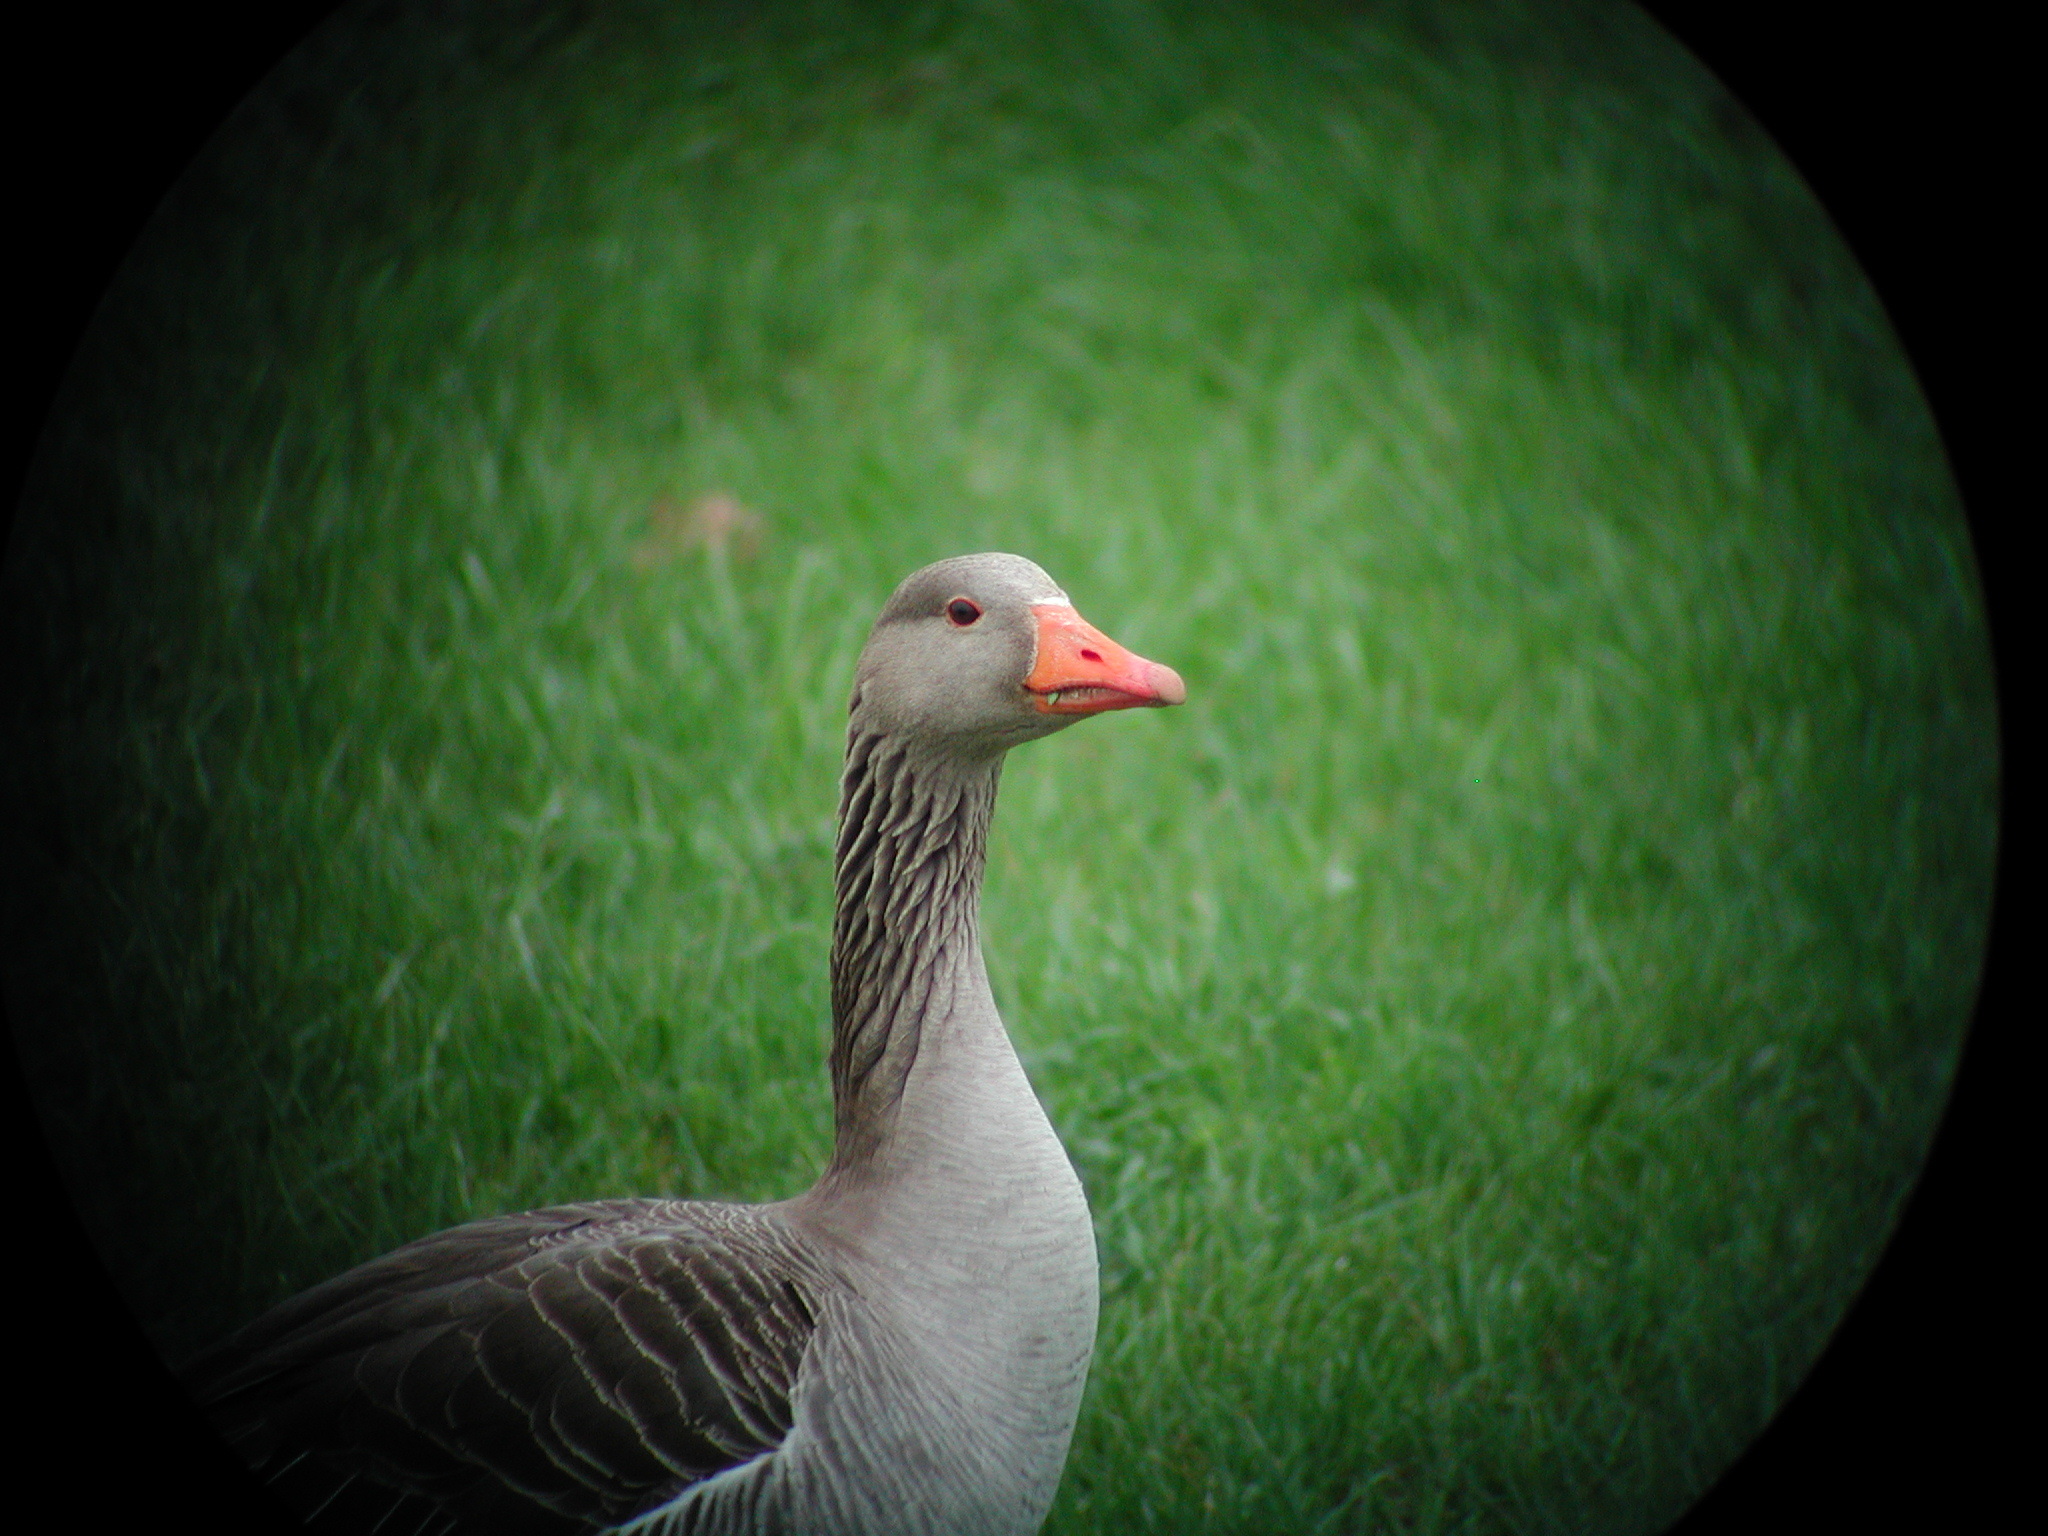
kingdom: Animalia
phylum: Chordata
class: Aves
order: Anseriformes
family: Anatidae
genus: Anser
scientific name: Anser anser
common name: Greylag goose
